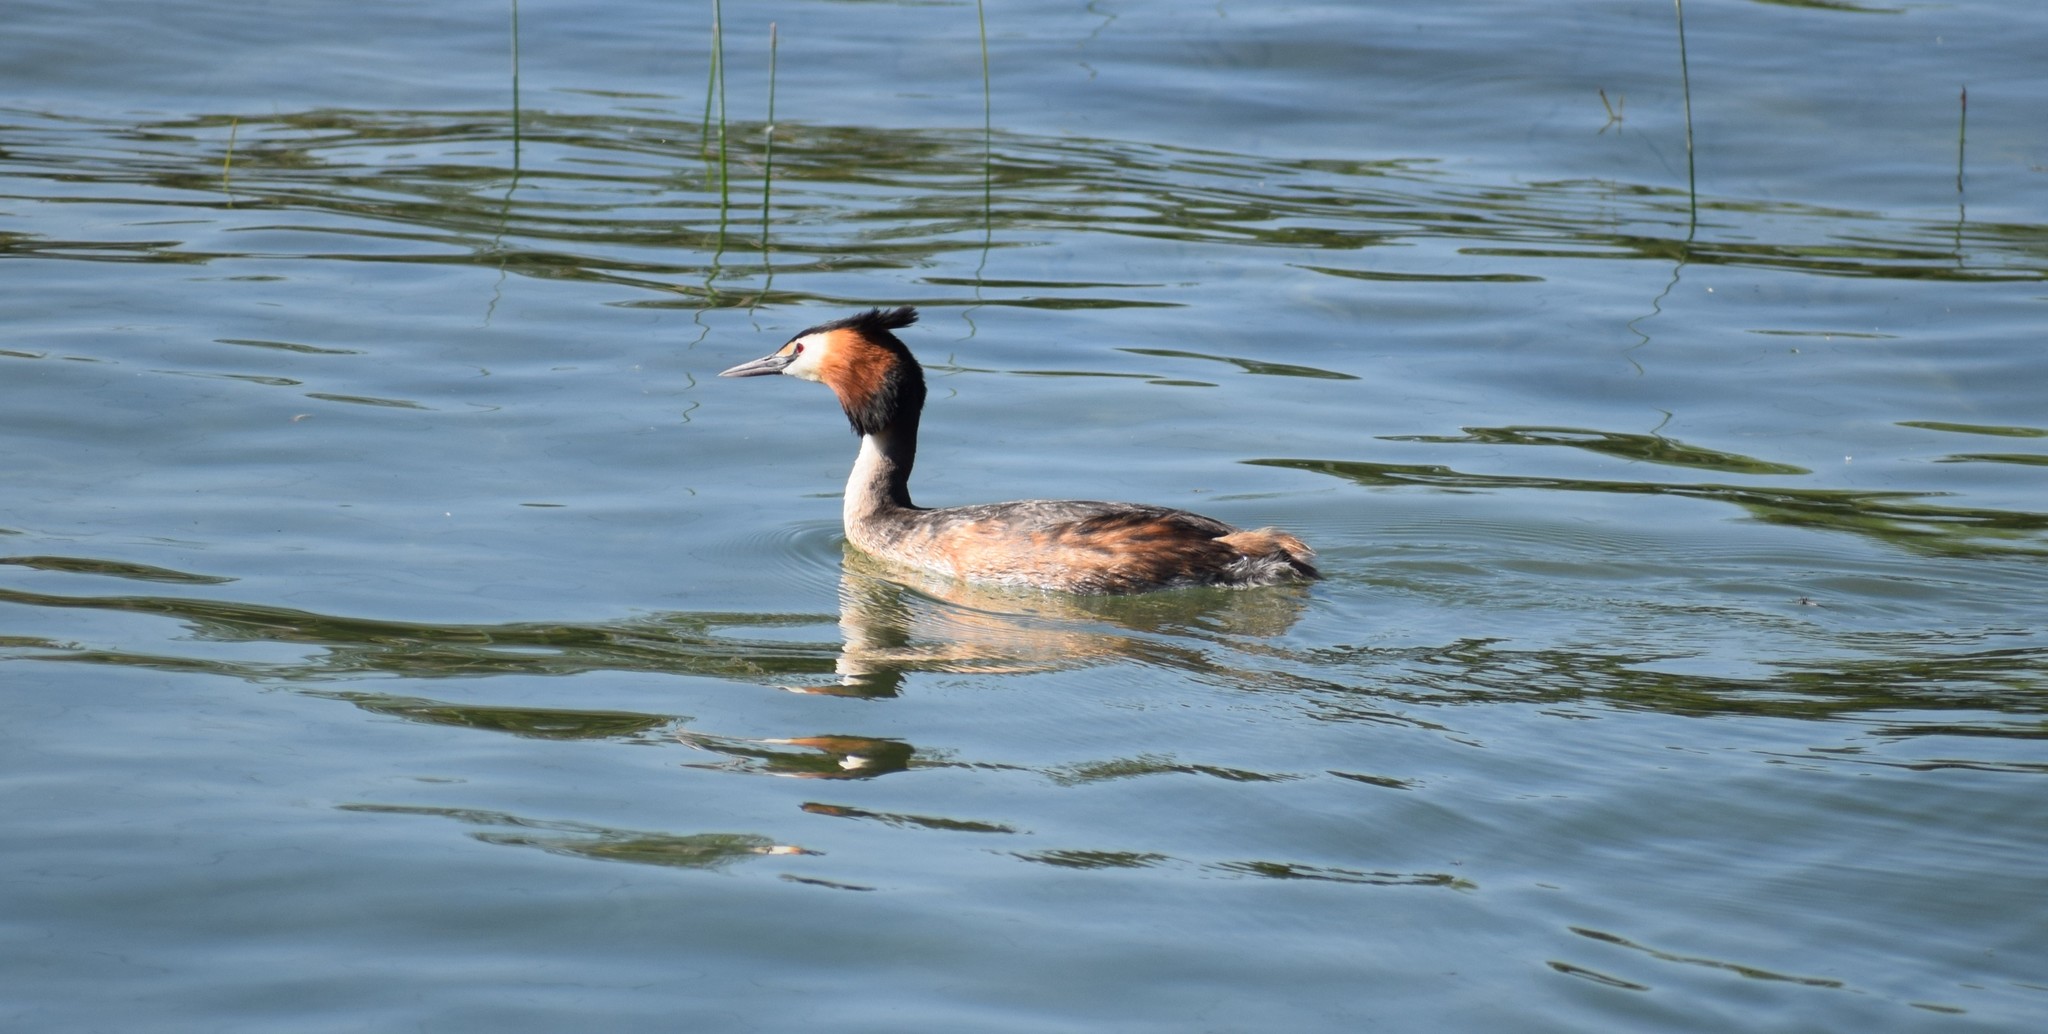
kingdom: Animalia
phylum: Chordata
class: Aves
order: Podicipediformes
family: Podicipedidae
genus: Podiceps
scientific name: Podiceps cristatus
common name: Great crested grebe
